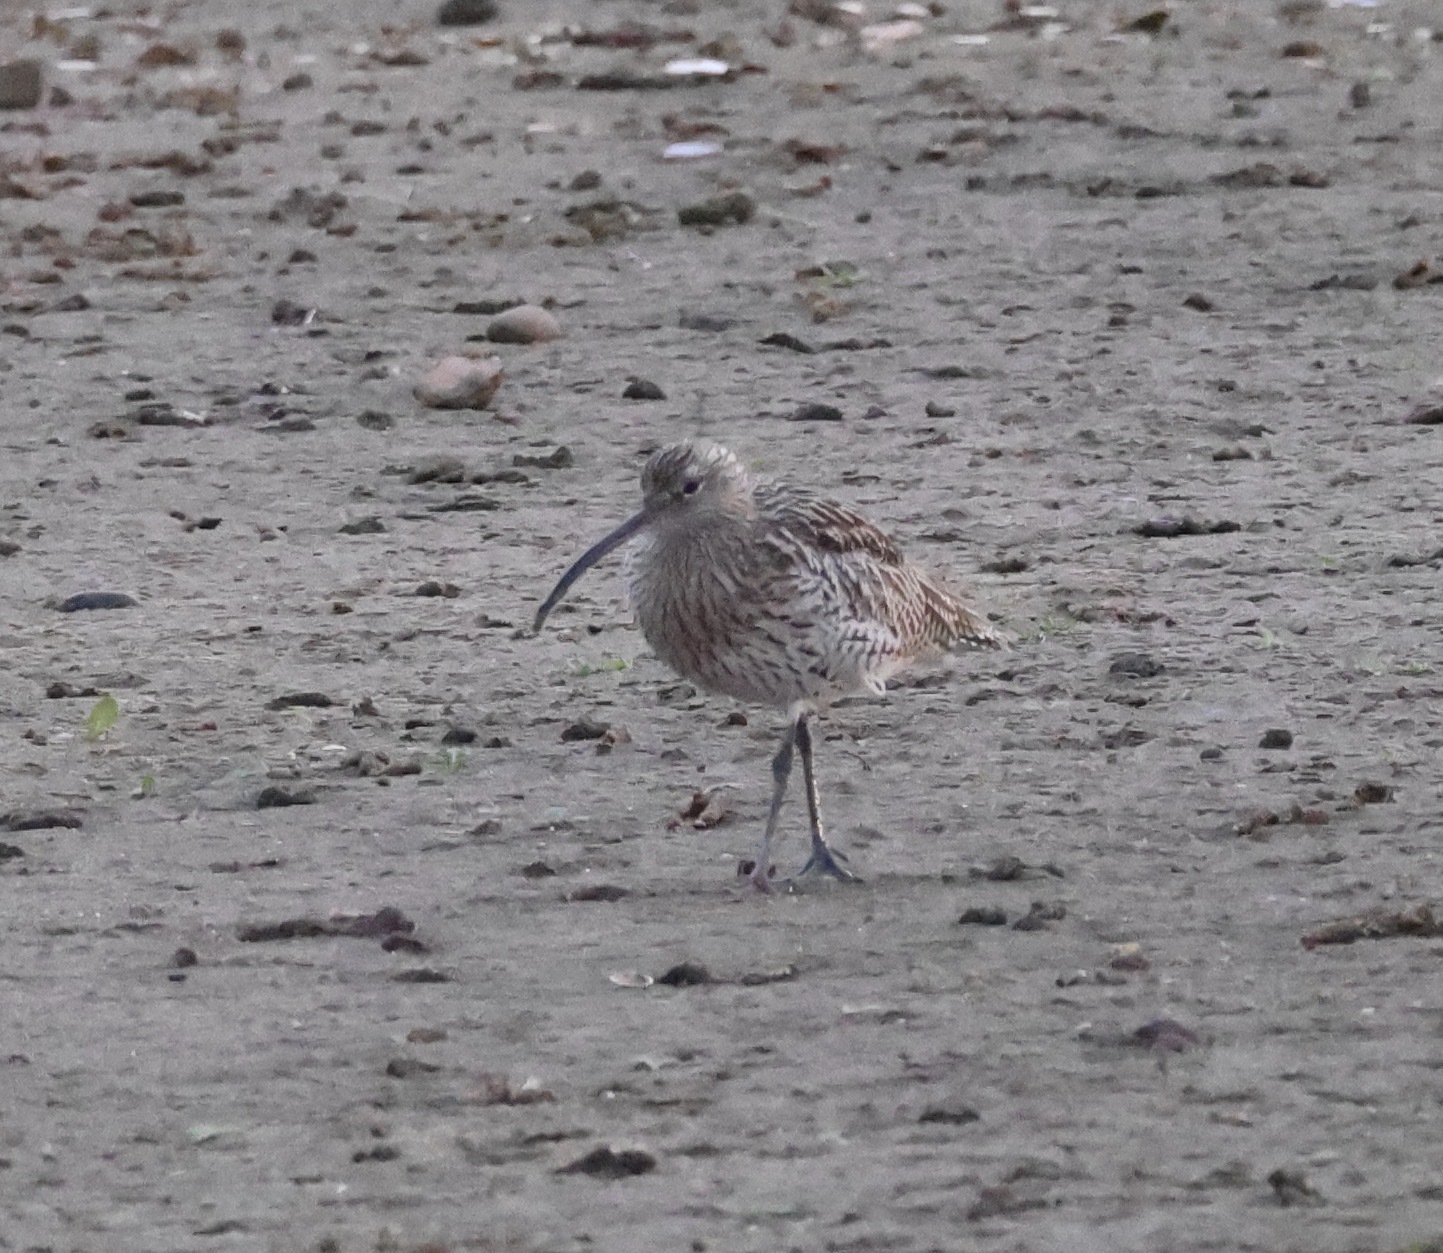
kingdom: Animalia
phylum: Chordata
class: Aves
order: Charadriiformes
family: Scolopacidae
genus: Numenius
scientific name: Numenius arquata
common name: Eurasian curlew
